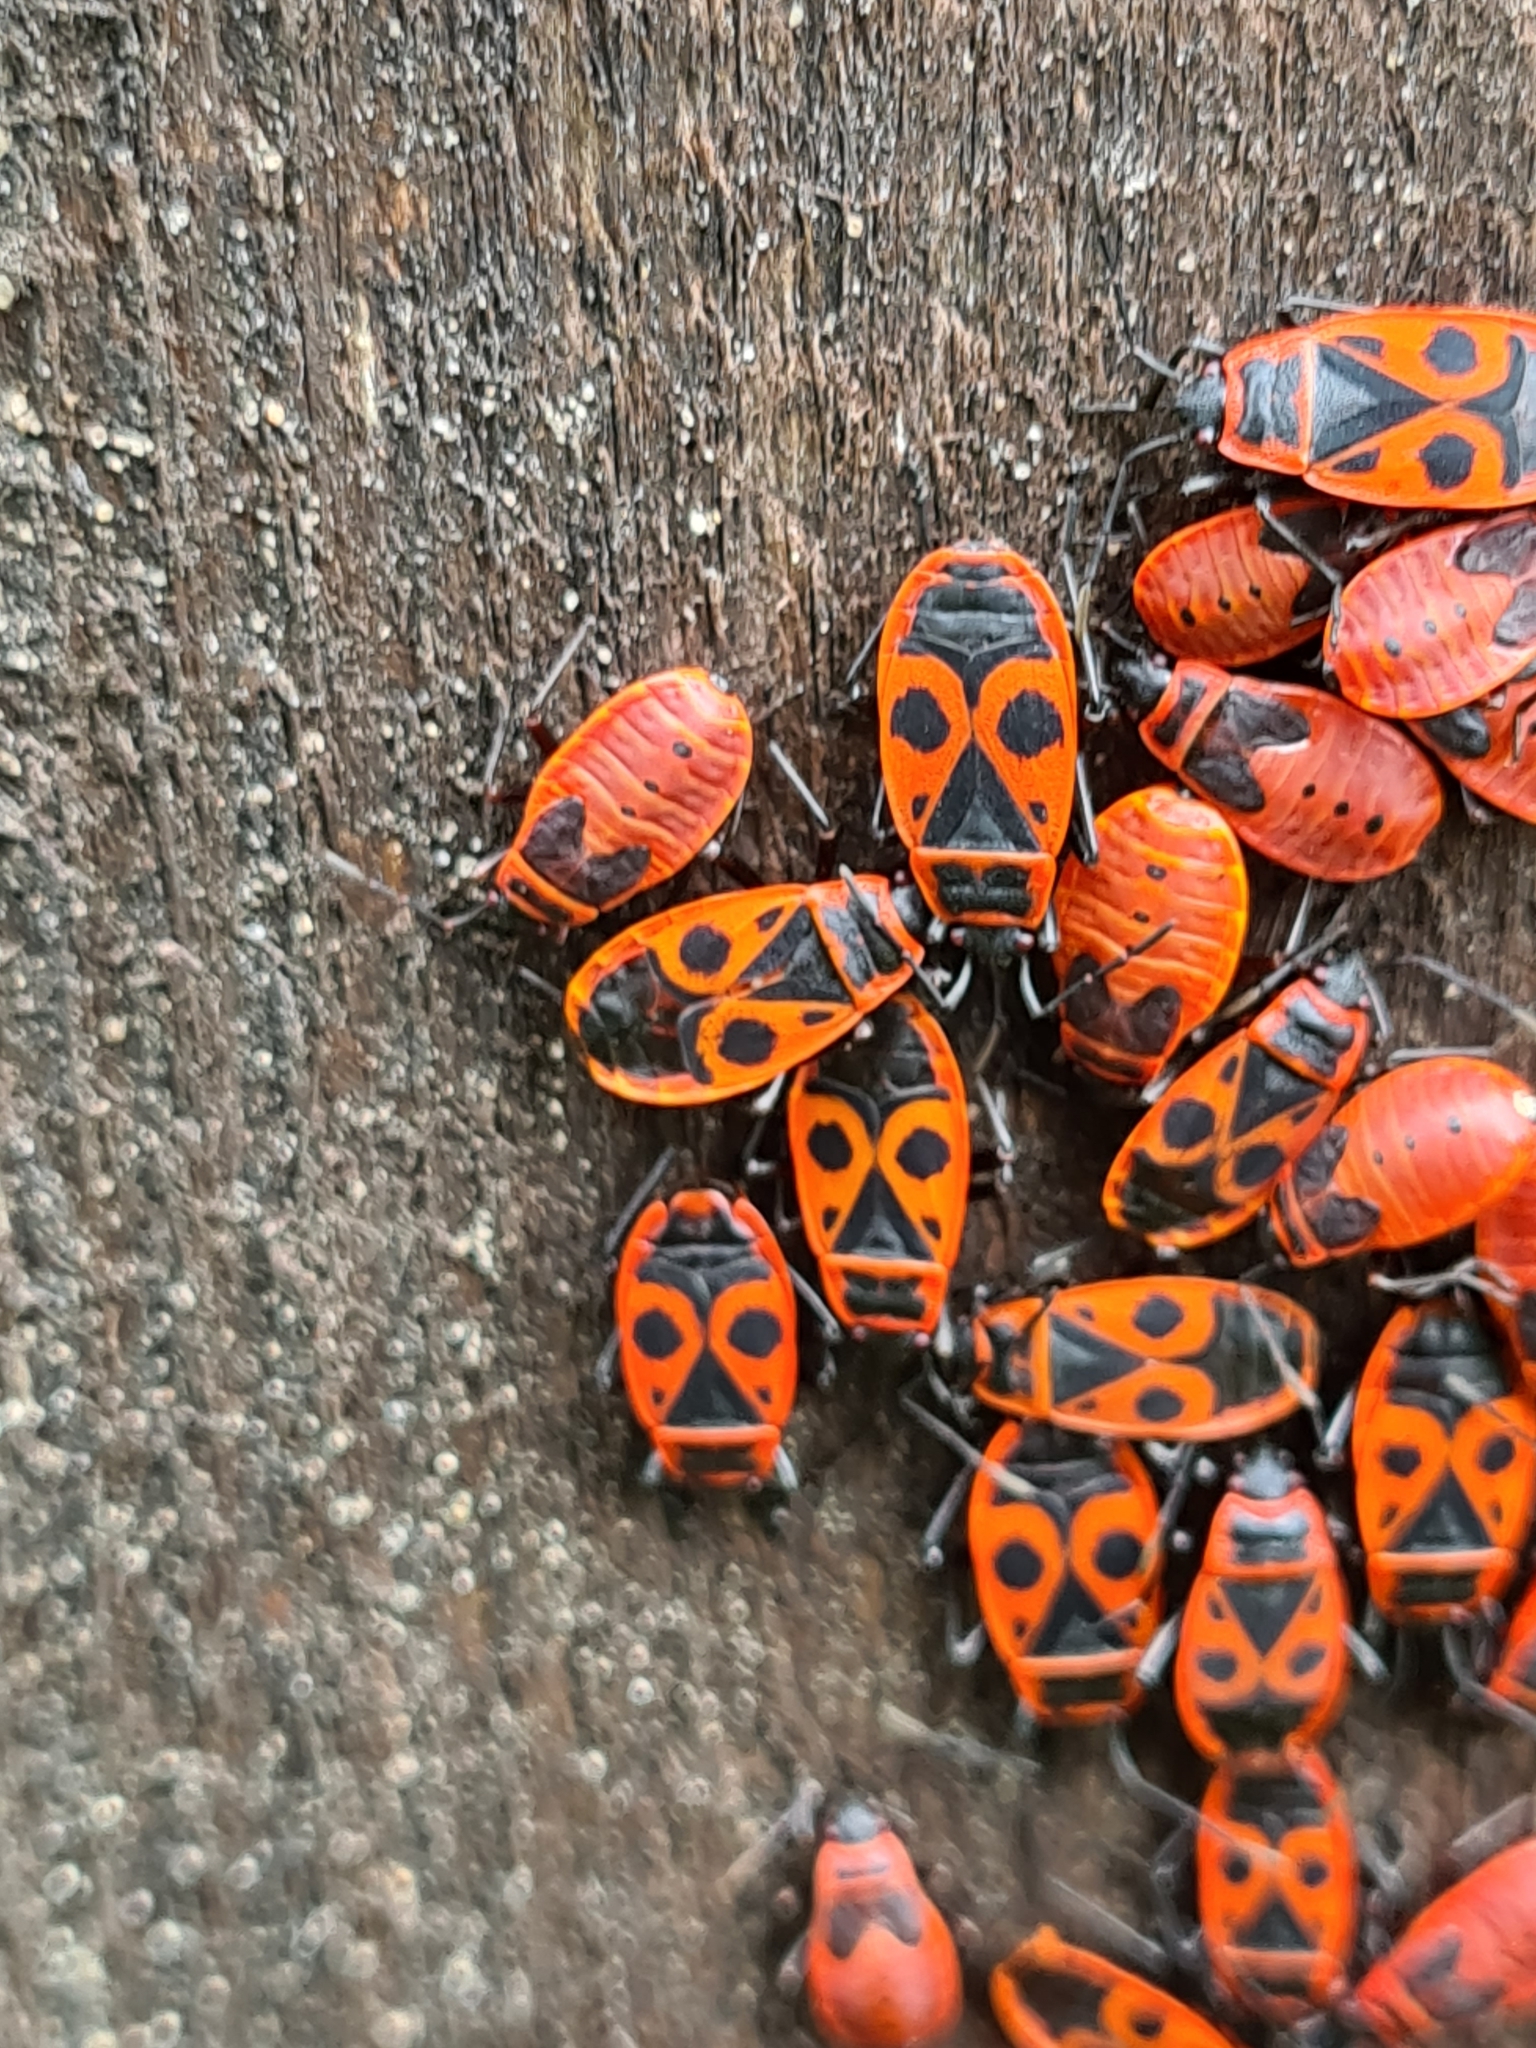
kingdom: Animalia
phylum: Arthropoda
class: Insecta
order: Hemiptera
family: Pyrrhocoridae
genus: Pyrrhocoris
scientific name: Pyrrhocoris apterus
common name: Firebug
